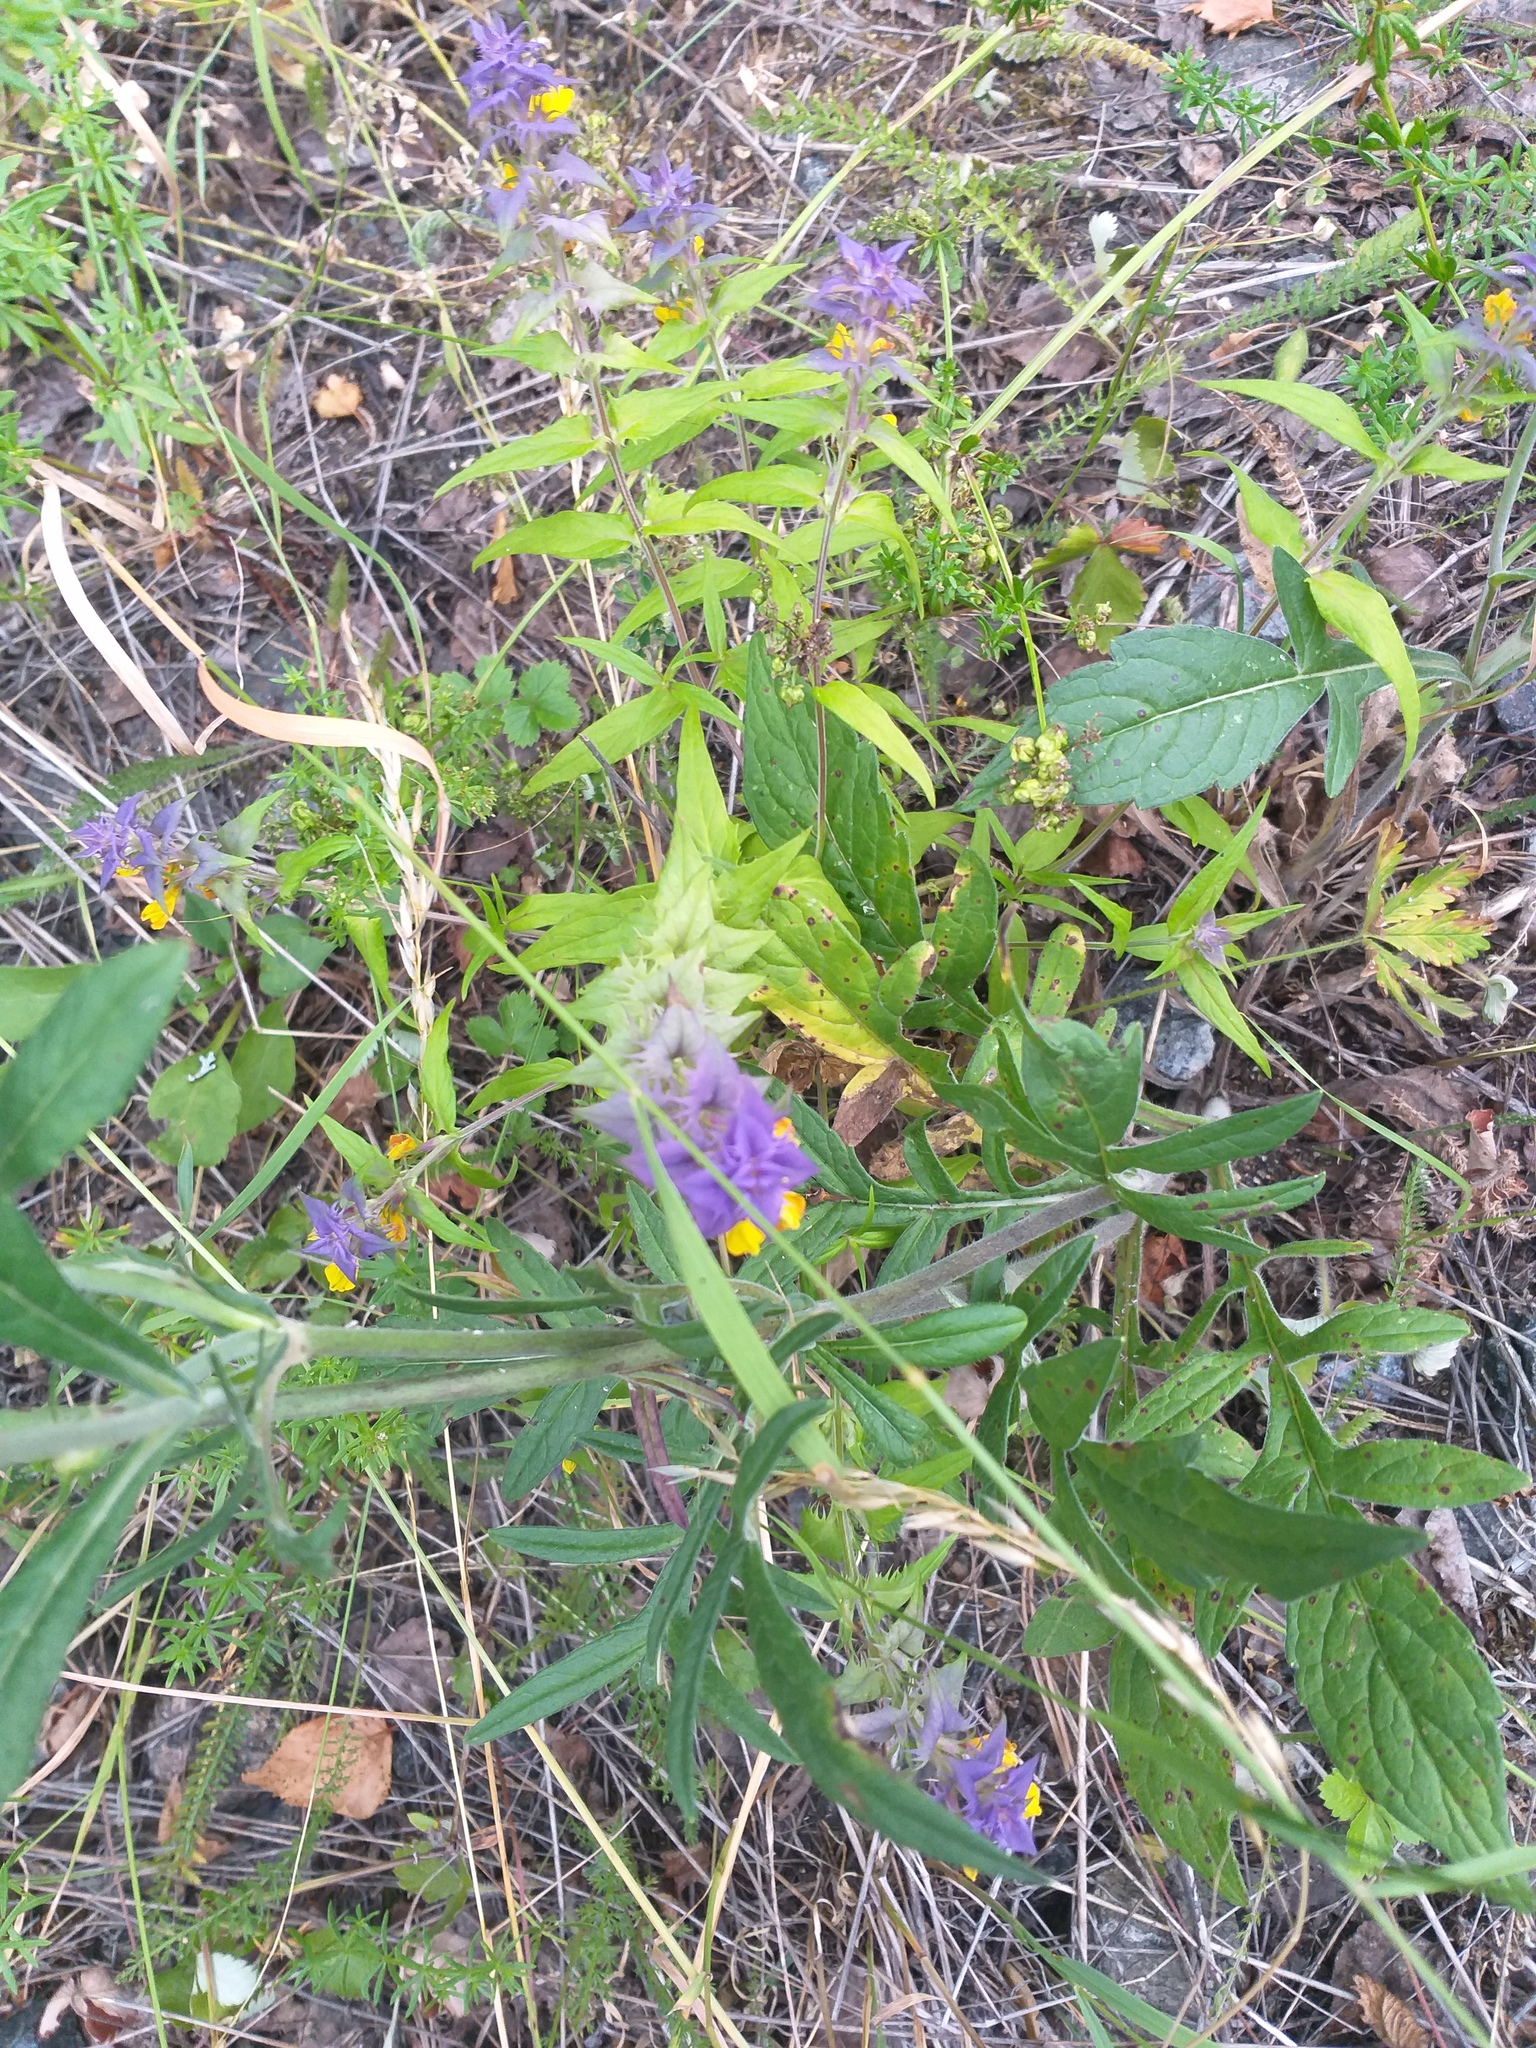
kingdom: Plantae
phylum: Tracheophyta
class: Magnoliopsida
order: Lamiales
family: Orobanchaceae
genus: Melampyrum
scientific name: Melampyrum nemorosum
